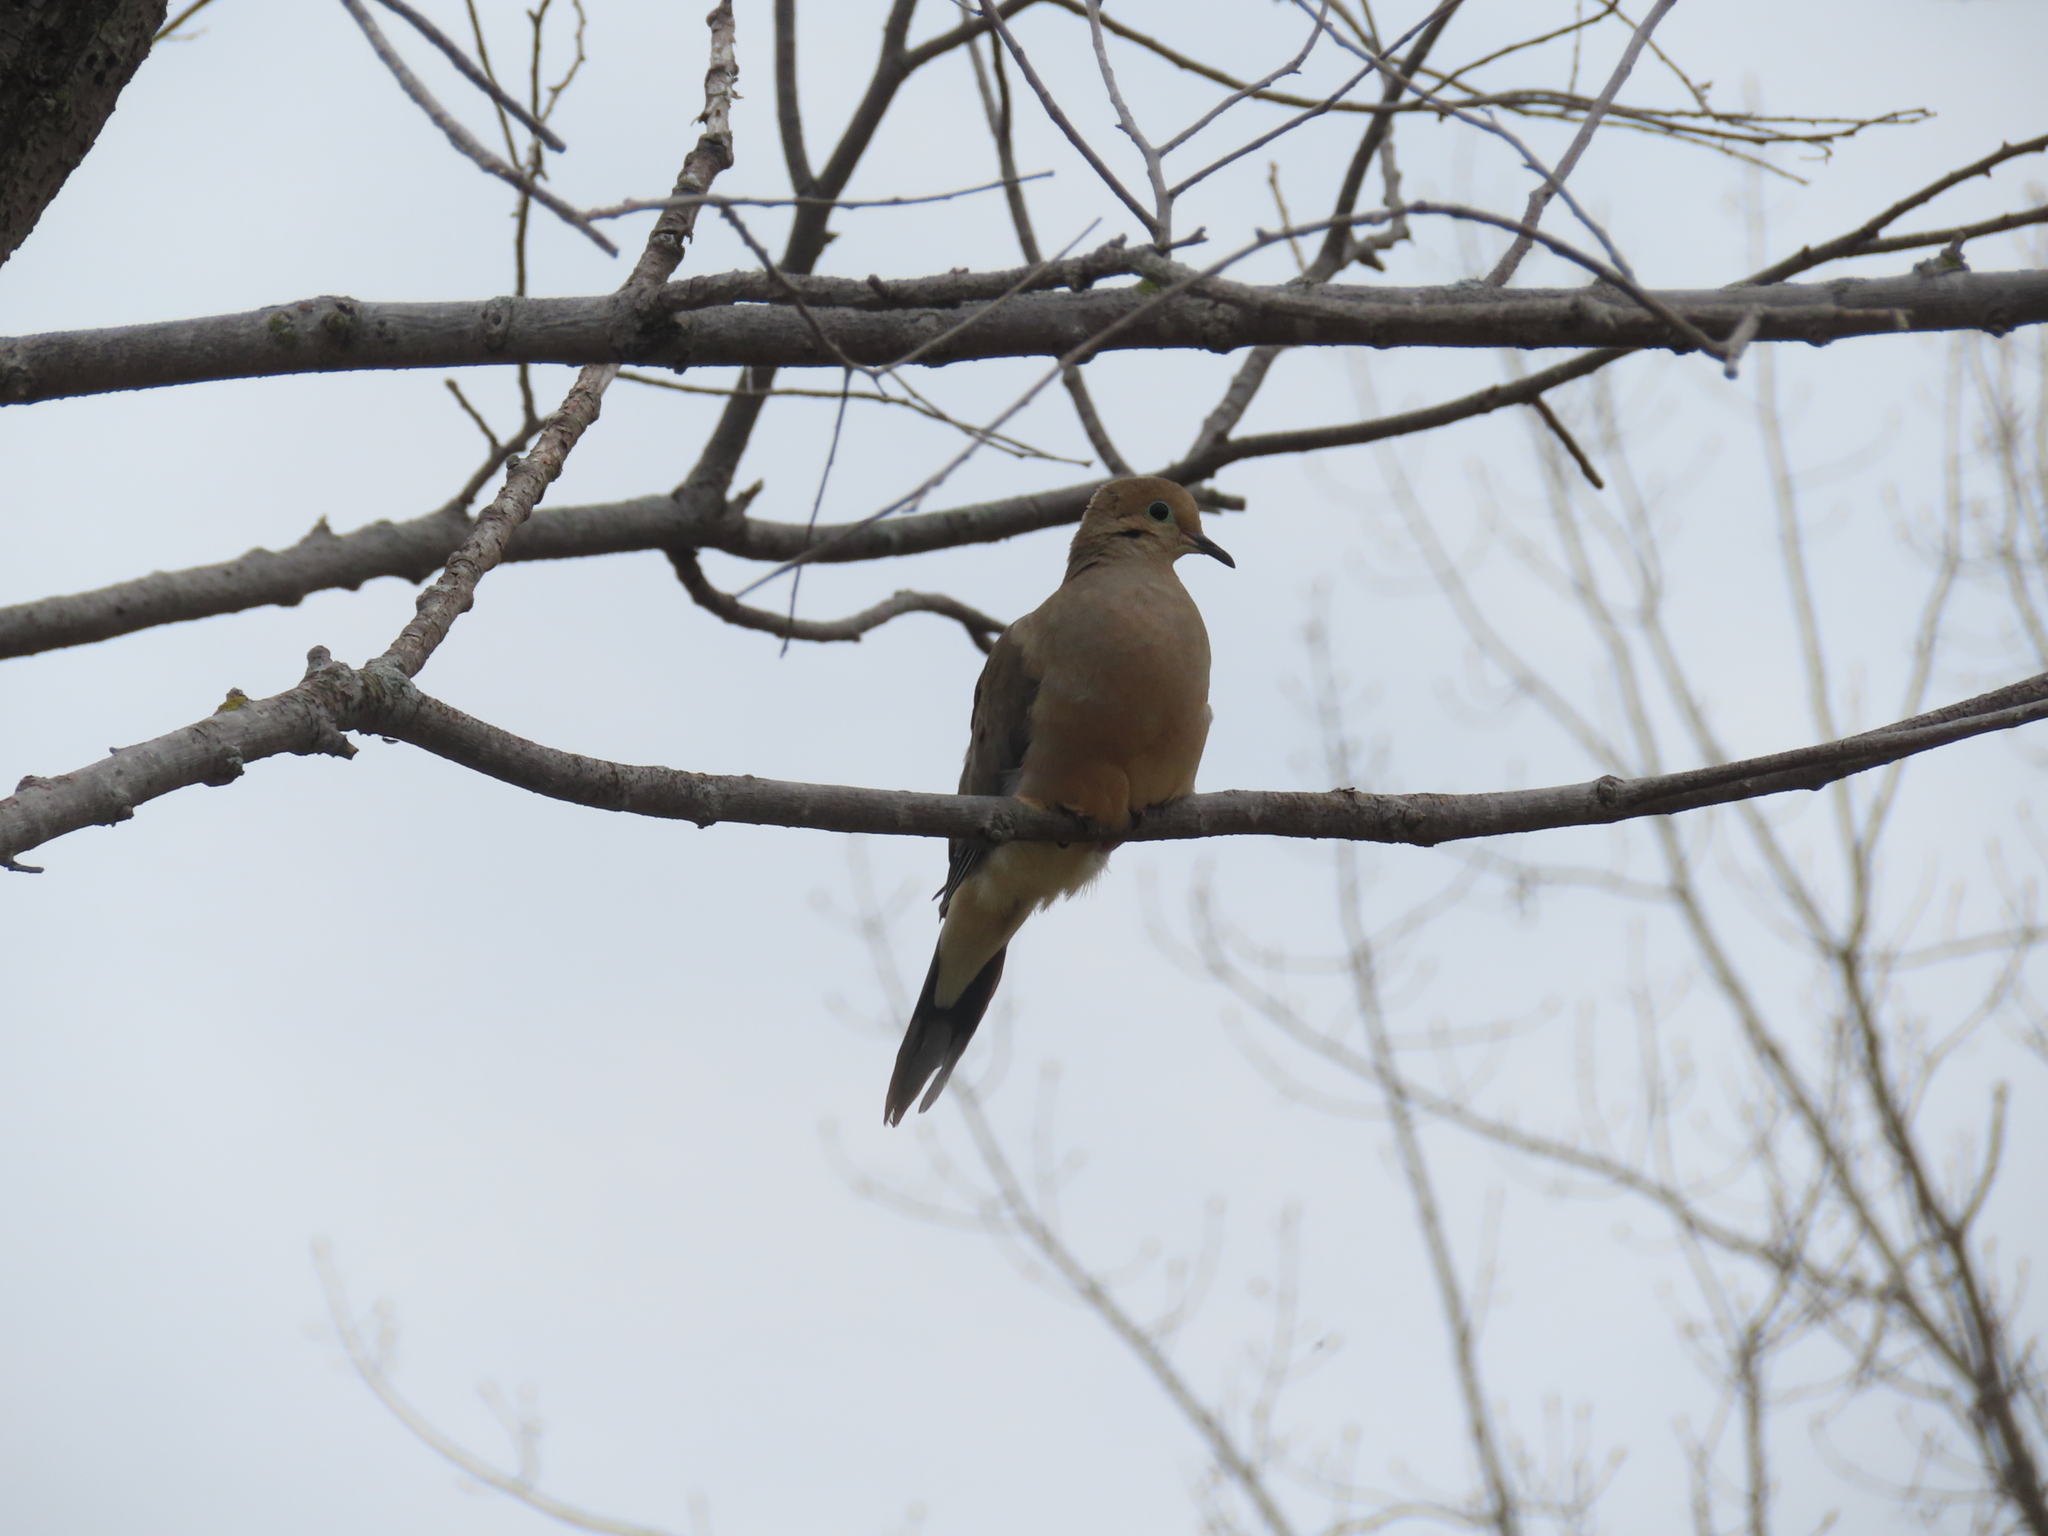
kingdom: Animalia
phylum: Chordata
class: Aves
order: Columbiformes
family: Columbidae
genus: Zenaida
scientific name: Zenaida macroura
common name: Mourning dove
